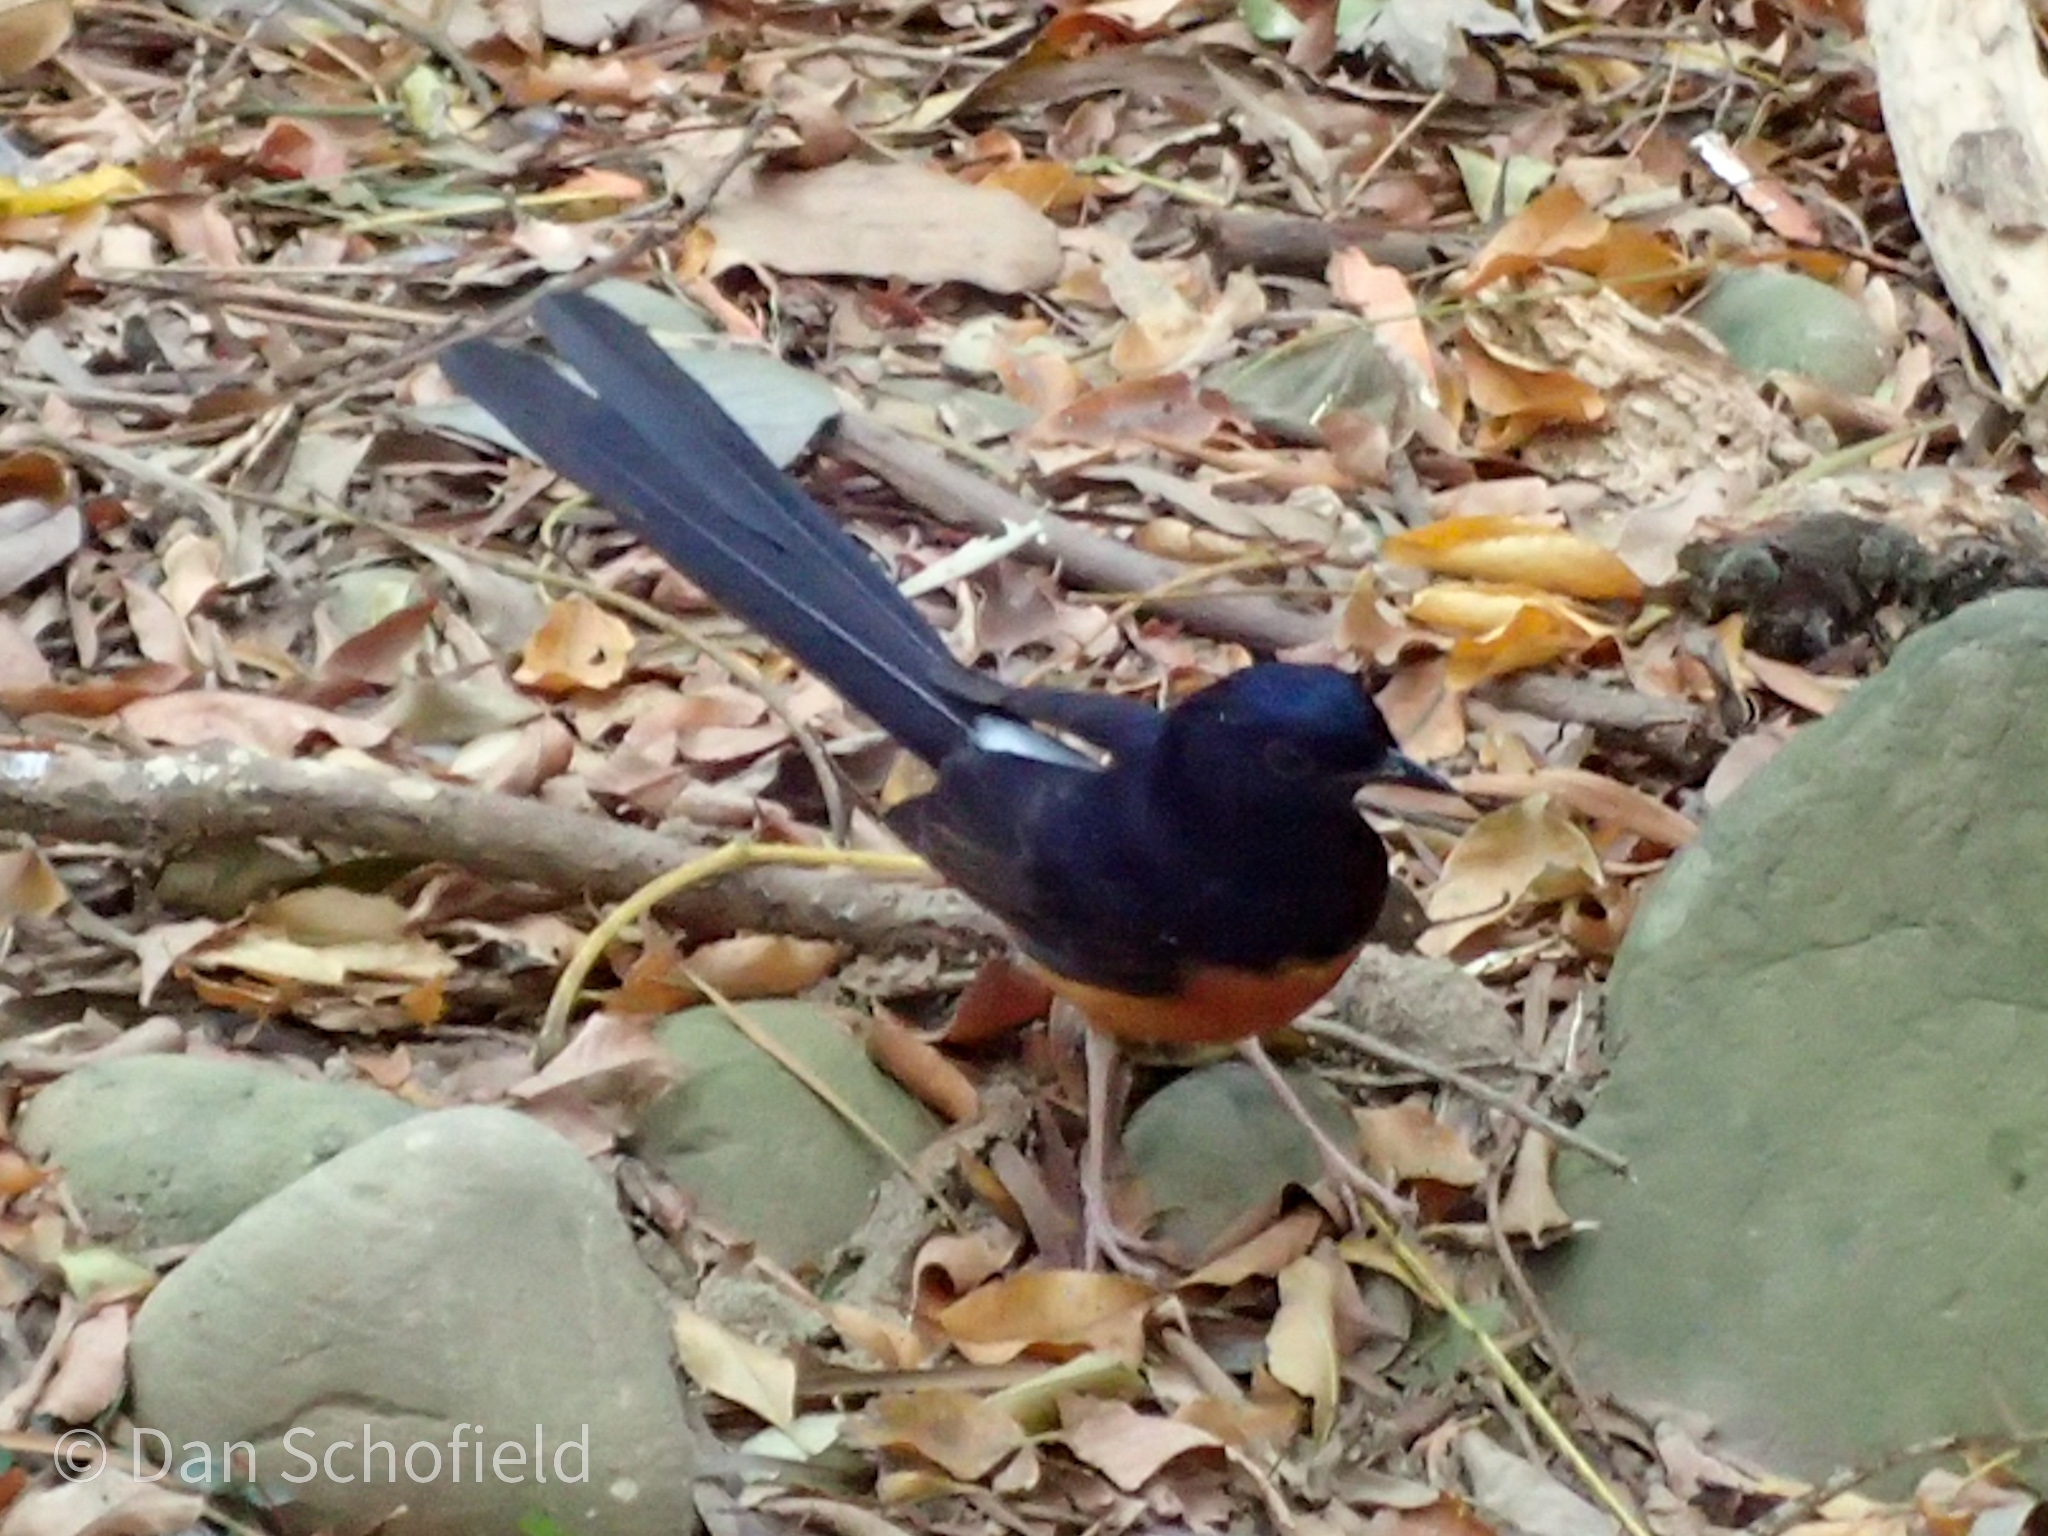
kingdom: Animalia
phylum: Chordata
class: Aves
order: Passeriformes
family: Muscicapidae
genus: Copsychus
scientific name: Copsychus malabaricus
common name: White-rumped shama
